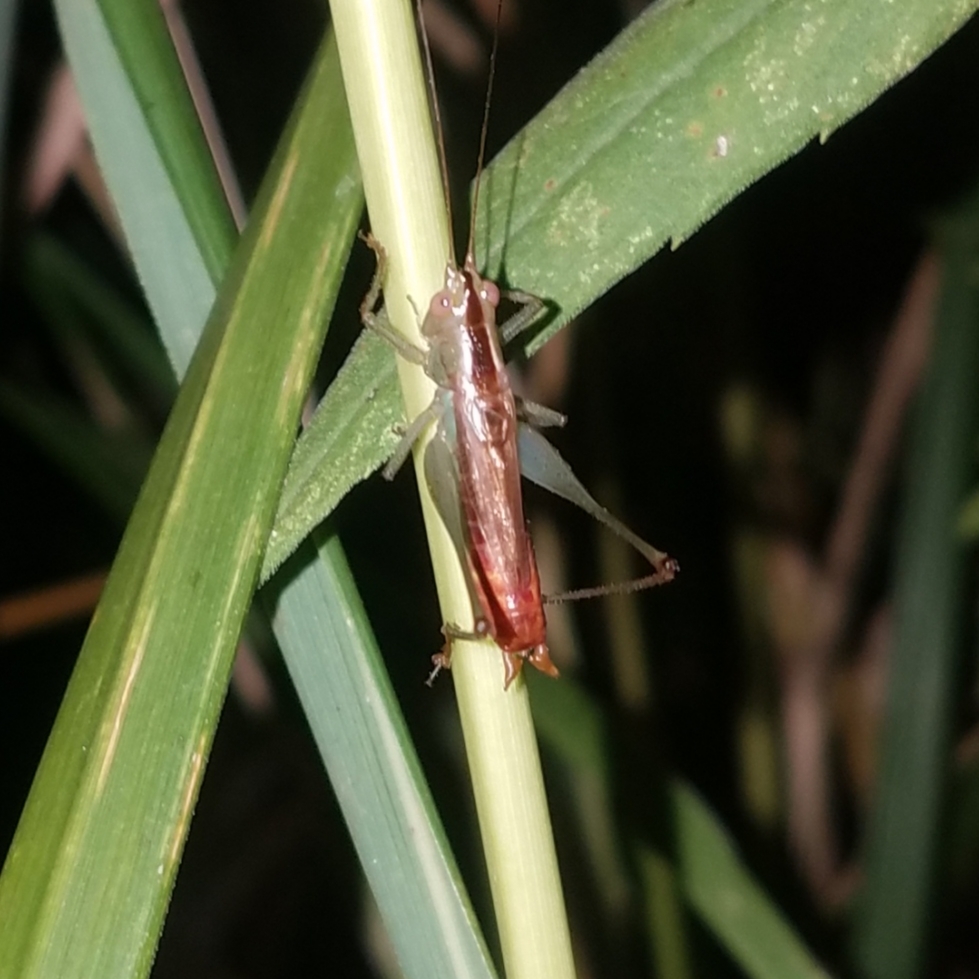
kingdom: Animalia
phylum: Arthropoda
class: Insecta
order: Orthoptera
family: Tettigoniidae
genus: Conocephalus
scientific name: Conocephalus brevipennis
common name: Short-winged meadow katydid
